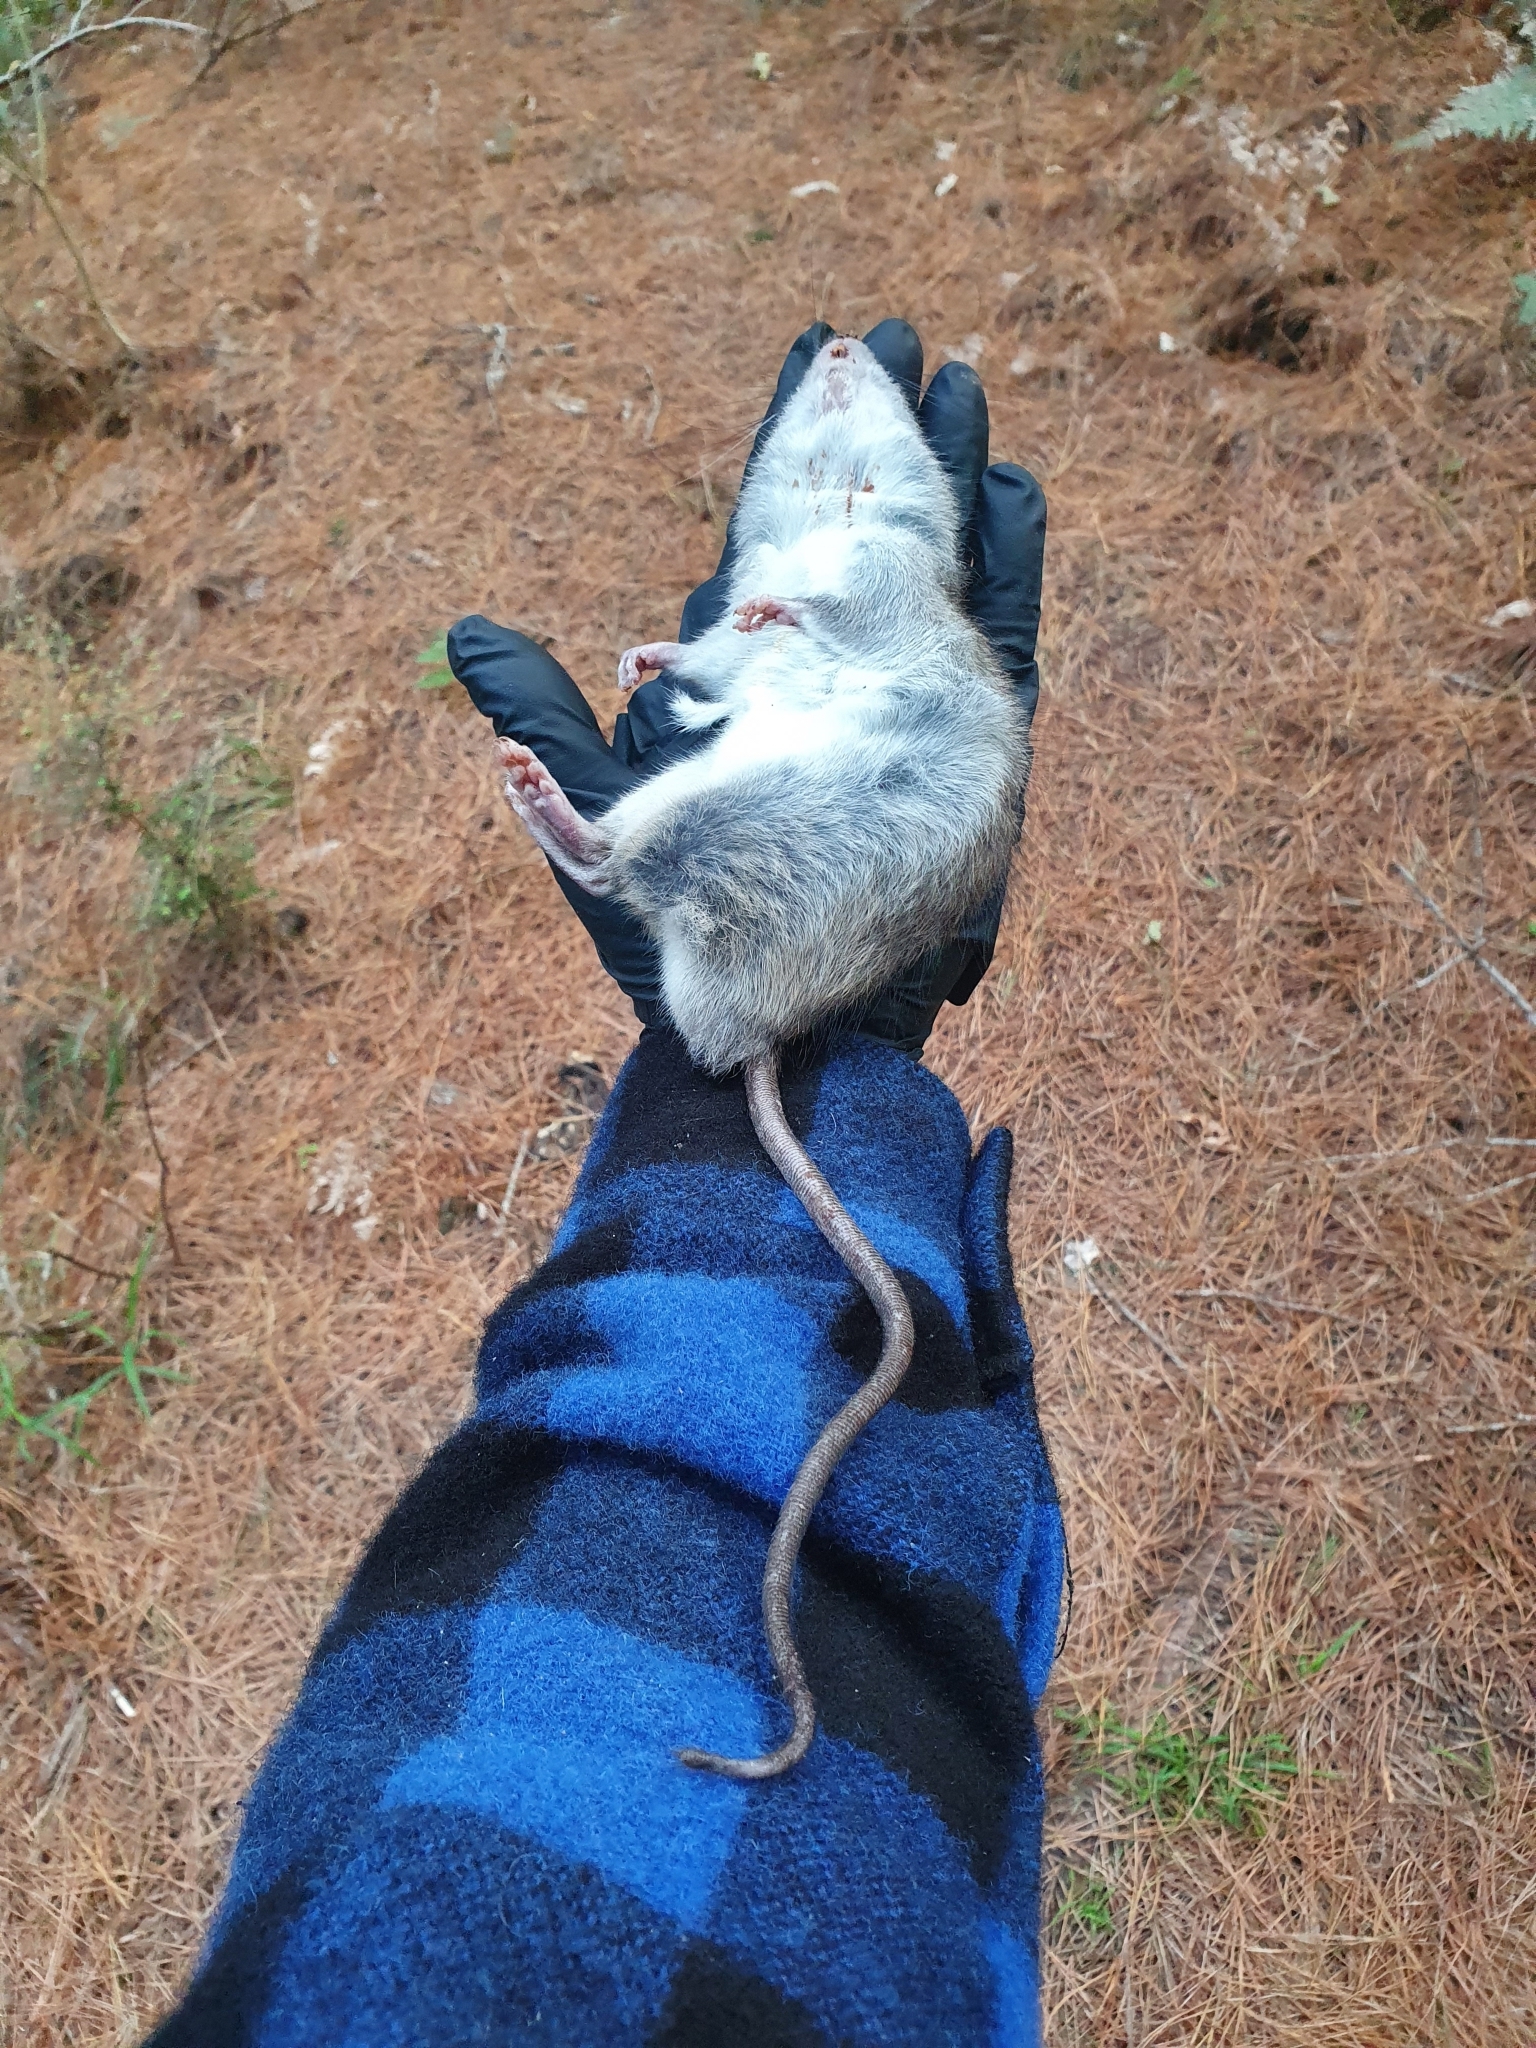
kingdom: Animalia
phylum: Chordata
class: Mammalia
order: Rodentia
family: Muridae
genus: Rattus
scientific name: Rattus rattus
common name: Black rat
